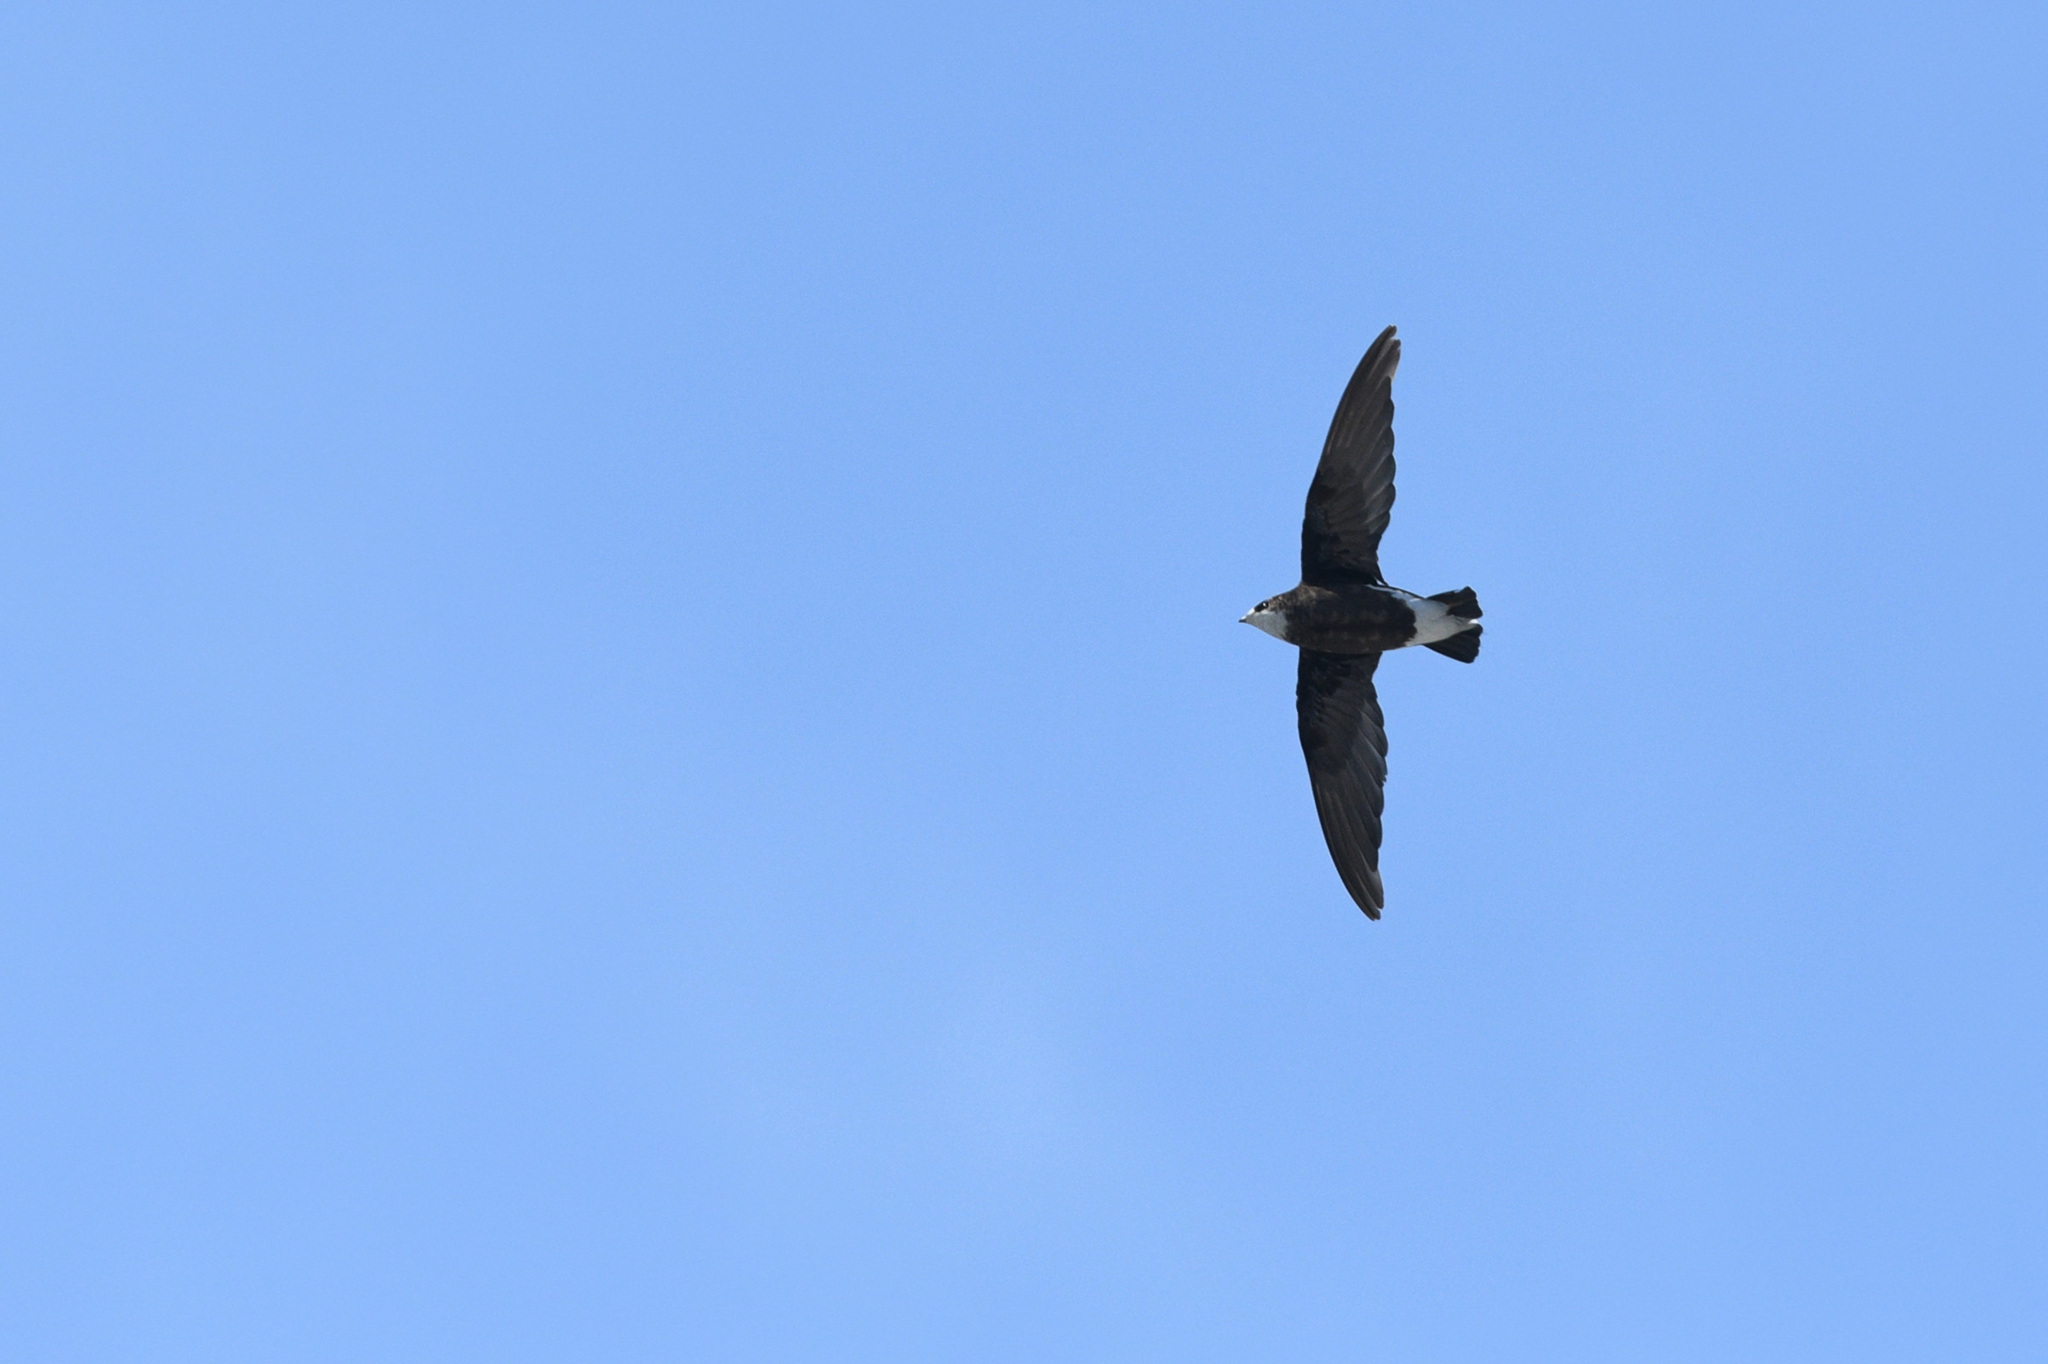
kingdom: Animalia
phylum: Chordata
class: Aves
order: Apodiformes
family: Apodidae
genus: Hirundapus
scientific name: Hirundapus caudacutus
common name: White-throated needletail
